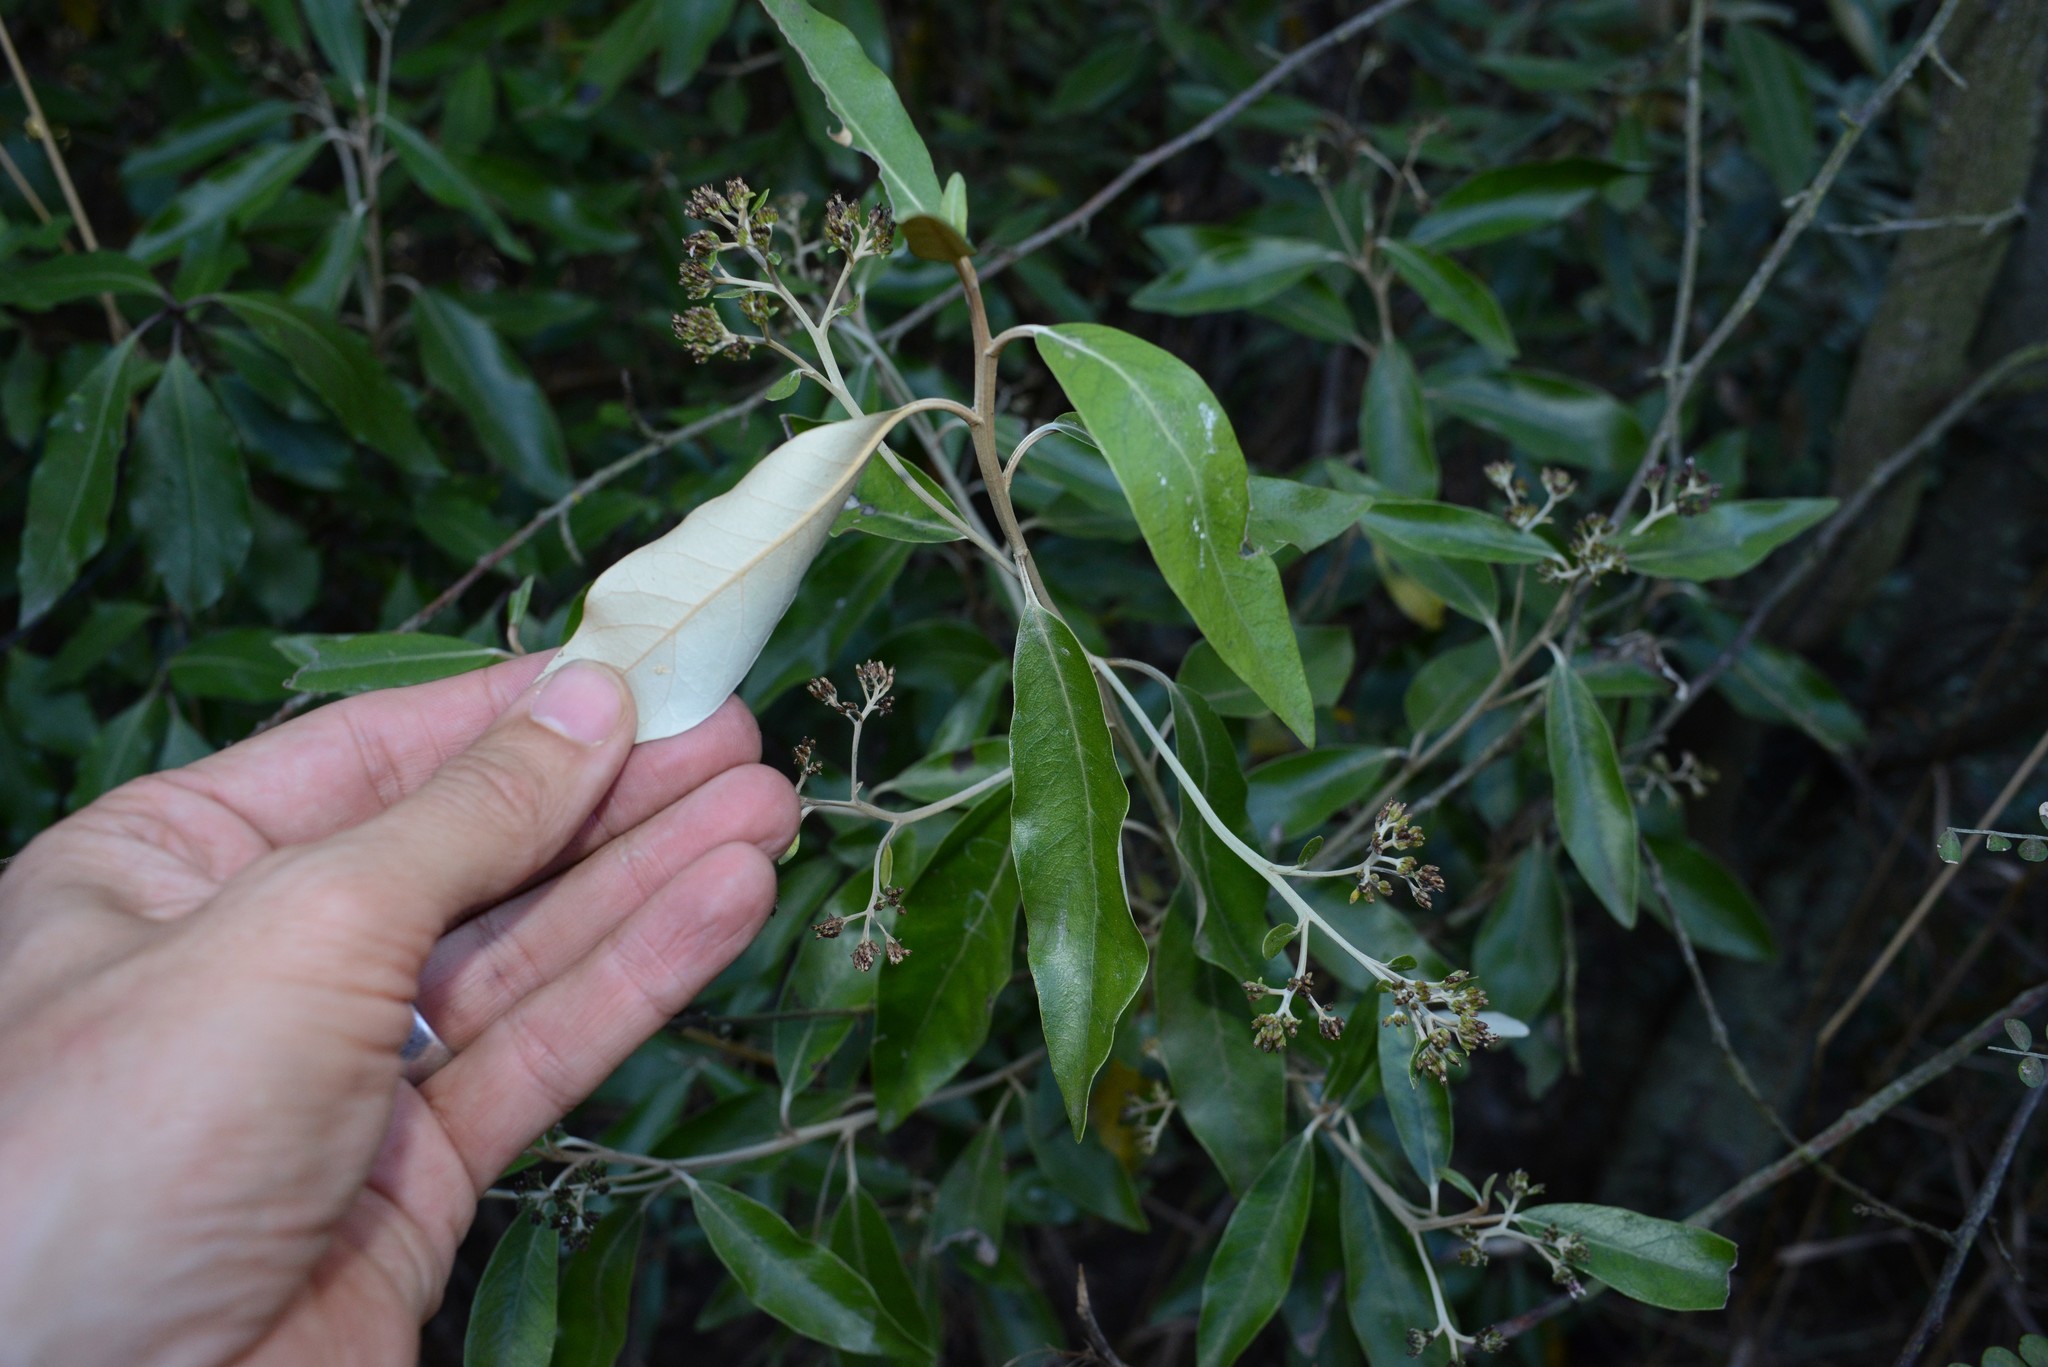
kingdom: Plantae
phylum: Tracheophyta
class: Magnoliopsida
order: Asterales
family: Asteraceae
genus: Olearia
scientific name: Olearia avicenniifolia
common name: Mangrove-leaf daisybush
